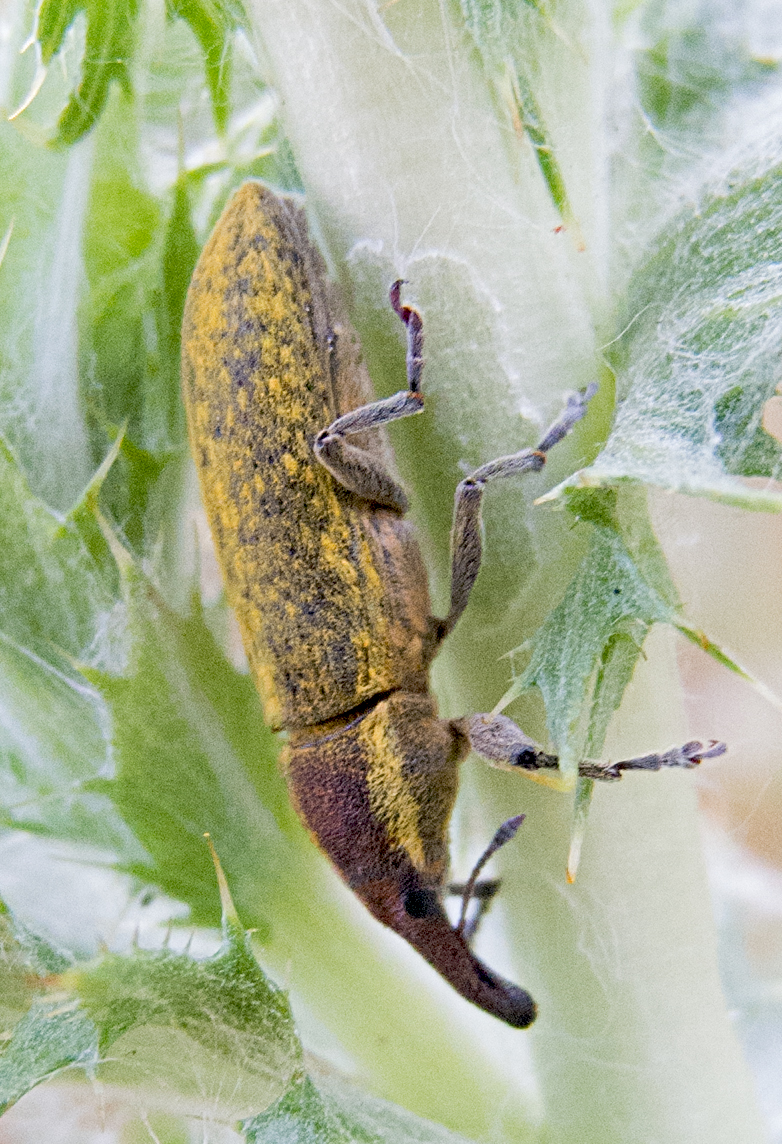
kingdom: Animalia
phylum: Arthropoda
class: Insecta
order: Coleoptera
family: Curculionidae
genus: Lixus
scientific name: Lixus scolopax
